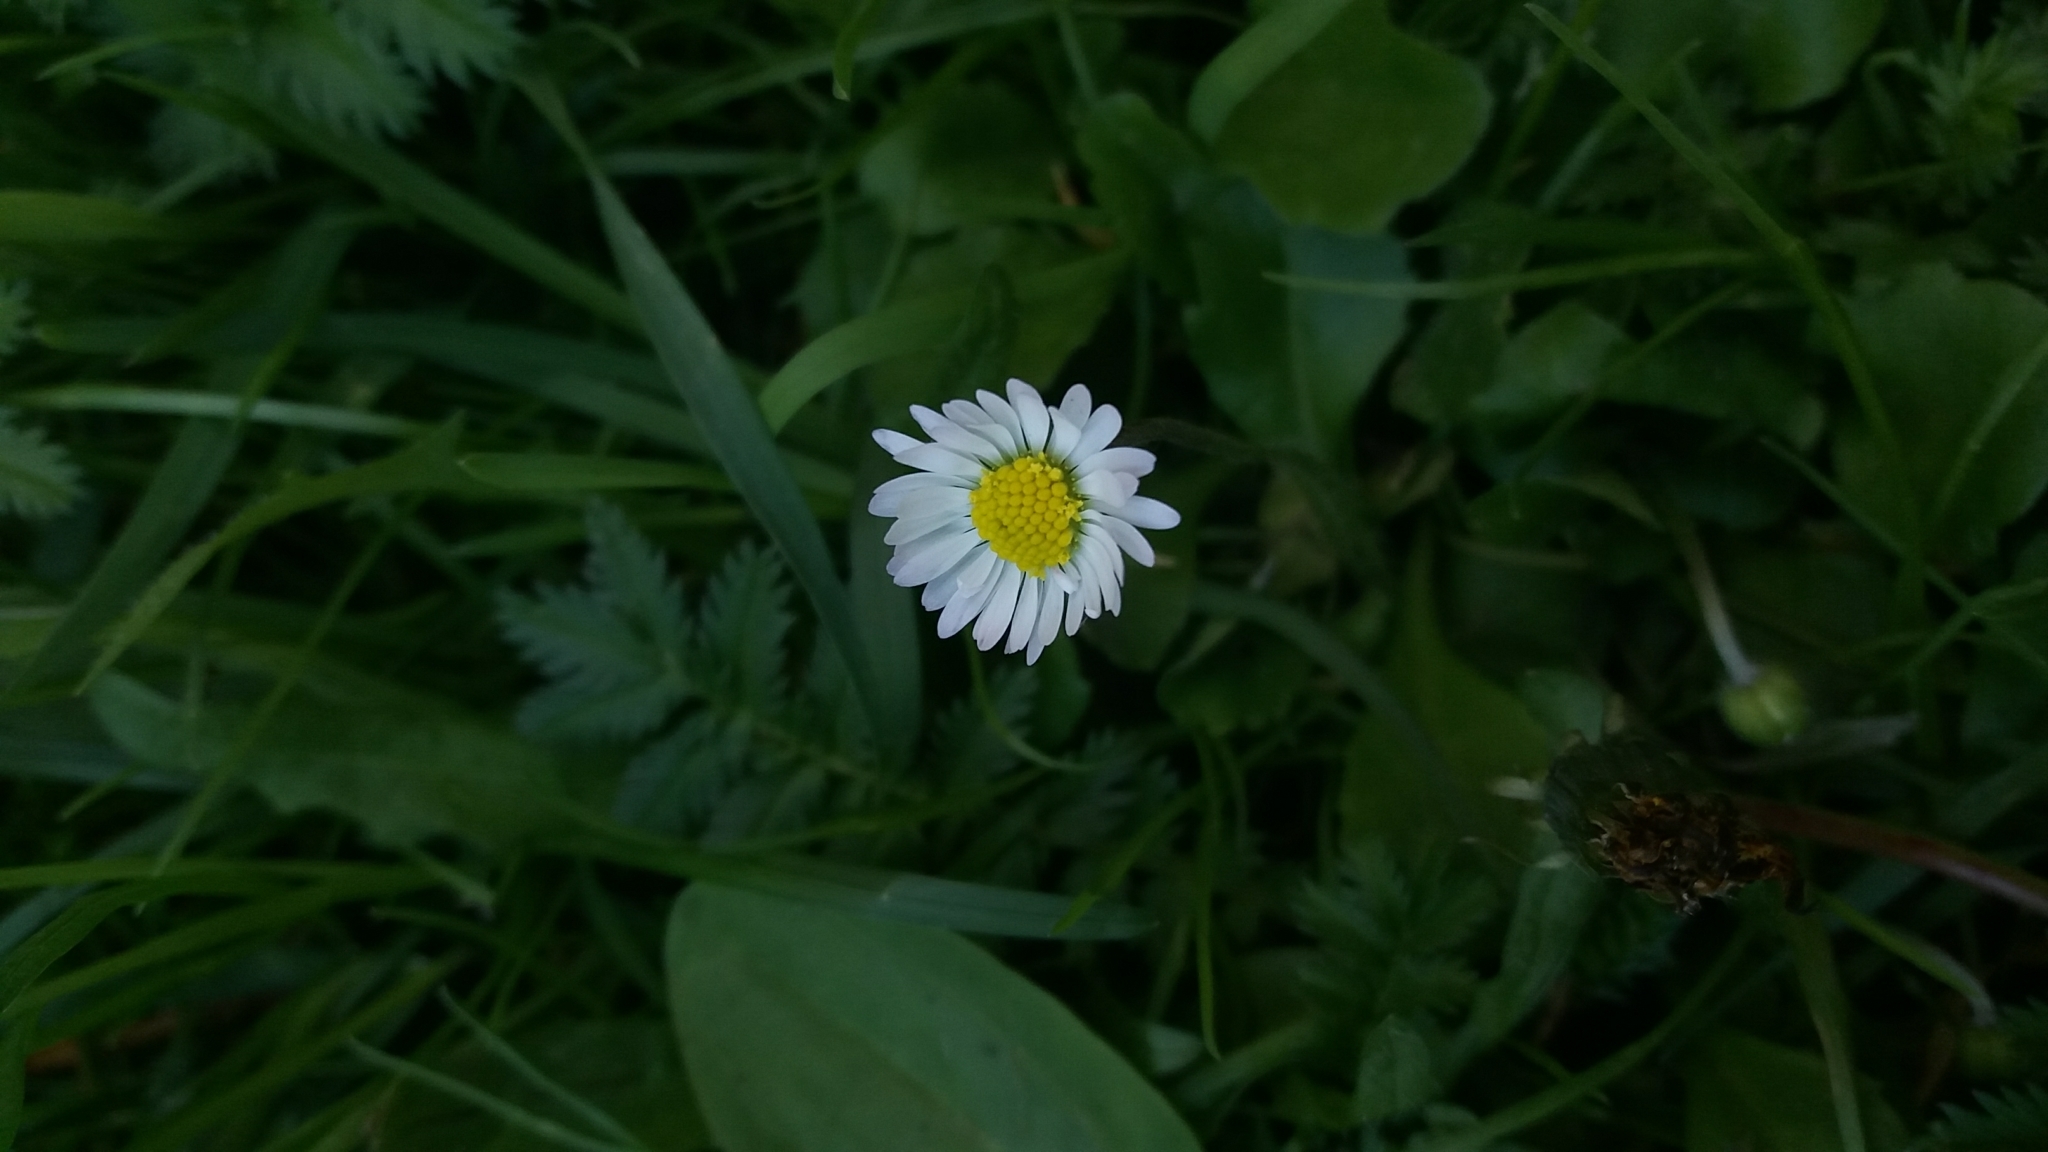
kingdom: Plantae
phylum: Tracheophyta
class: Magnoliopsida
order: Asterales
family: Asteraceae
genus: Bellis
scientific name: Bellis perennis
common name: Lawndaisy
